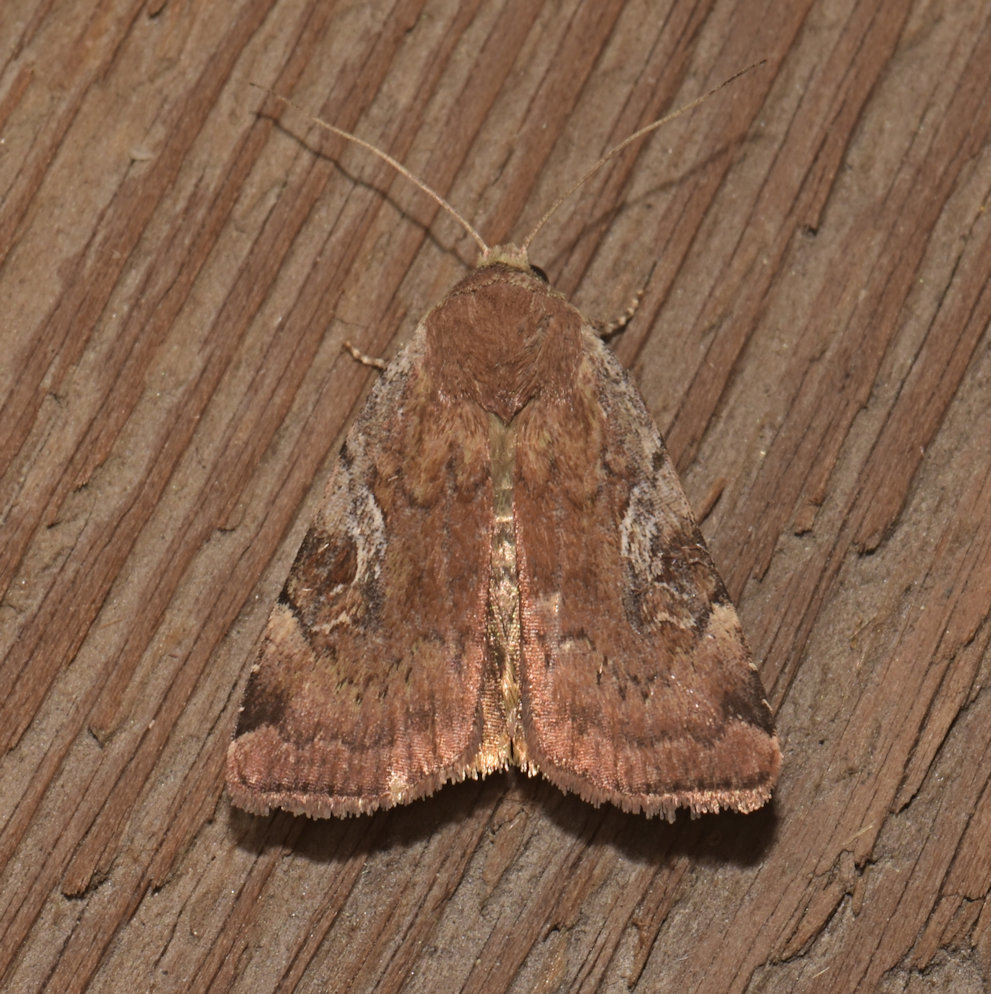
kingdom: Animalia
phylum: Arthropoda
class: Insecta
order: Lepidoptera
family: Noctuidae
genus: Cryptocala
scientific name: Cryptocala acadiensis
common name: Catocaline dart
